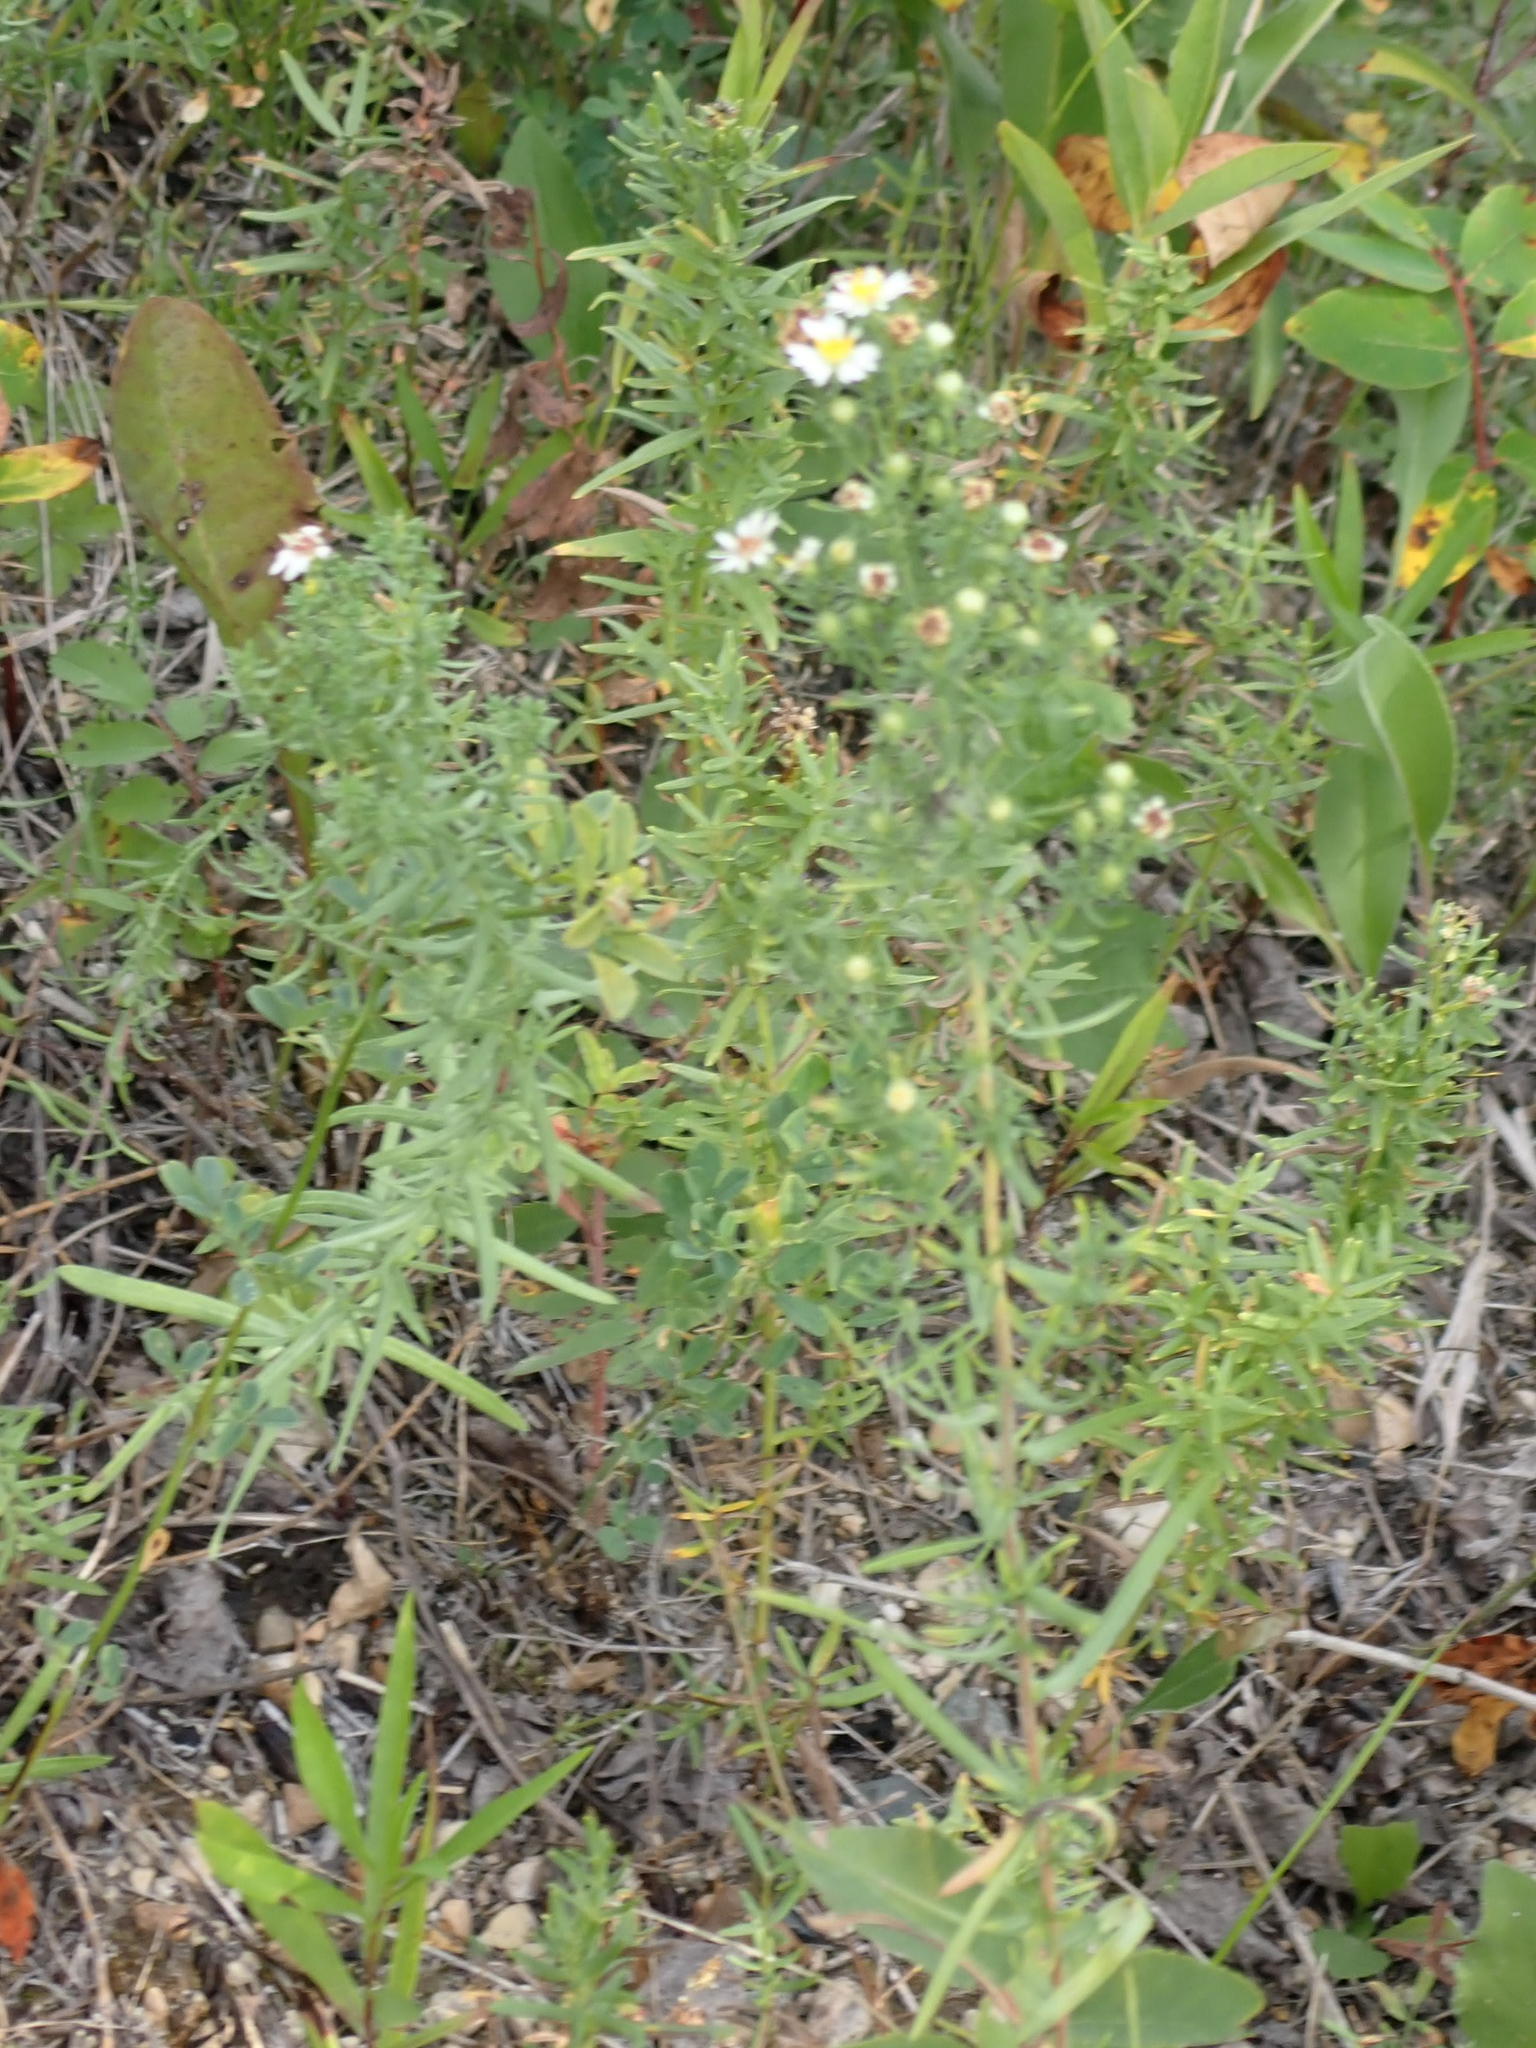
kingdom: Plantae
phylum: Tracheophyta
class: Magnoliopsida
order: Asterales
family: Asteraceae
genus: Symphyotrichum
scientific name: Symphyotrichum ericoides
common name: Heath aster
